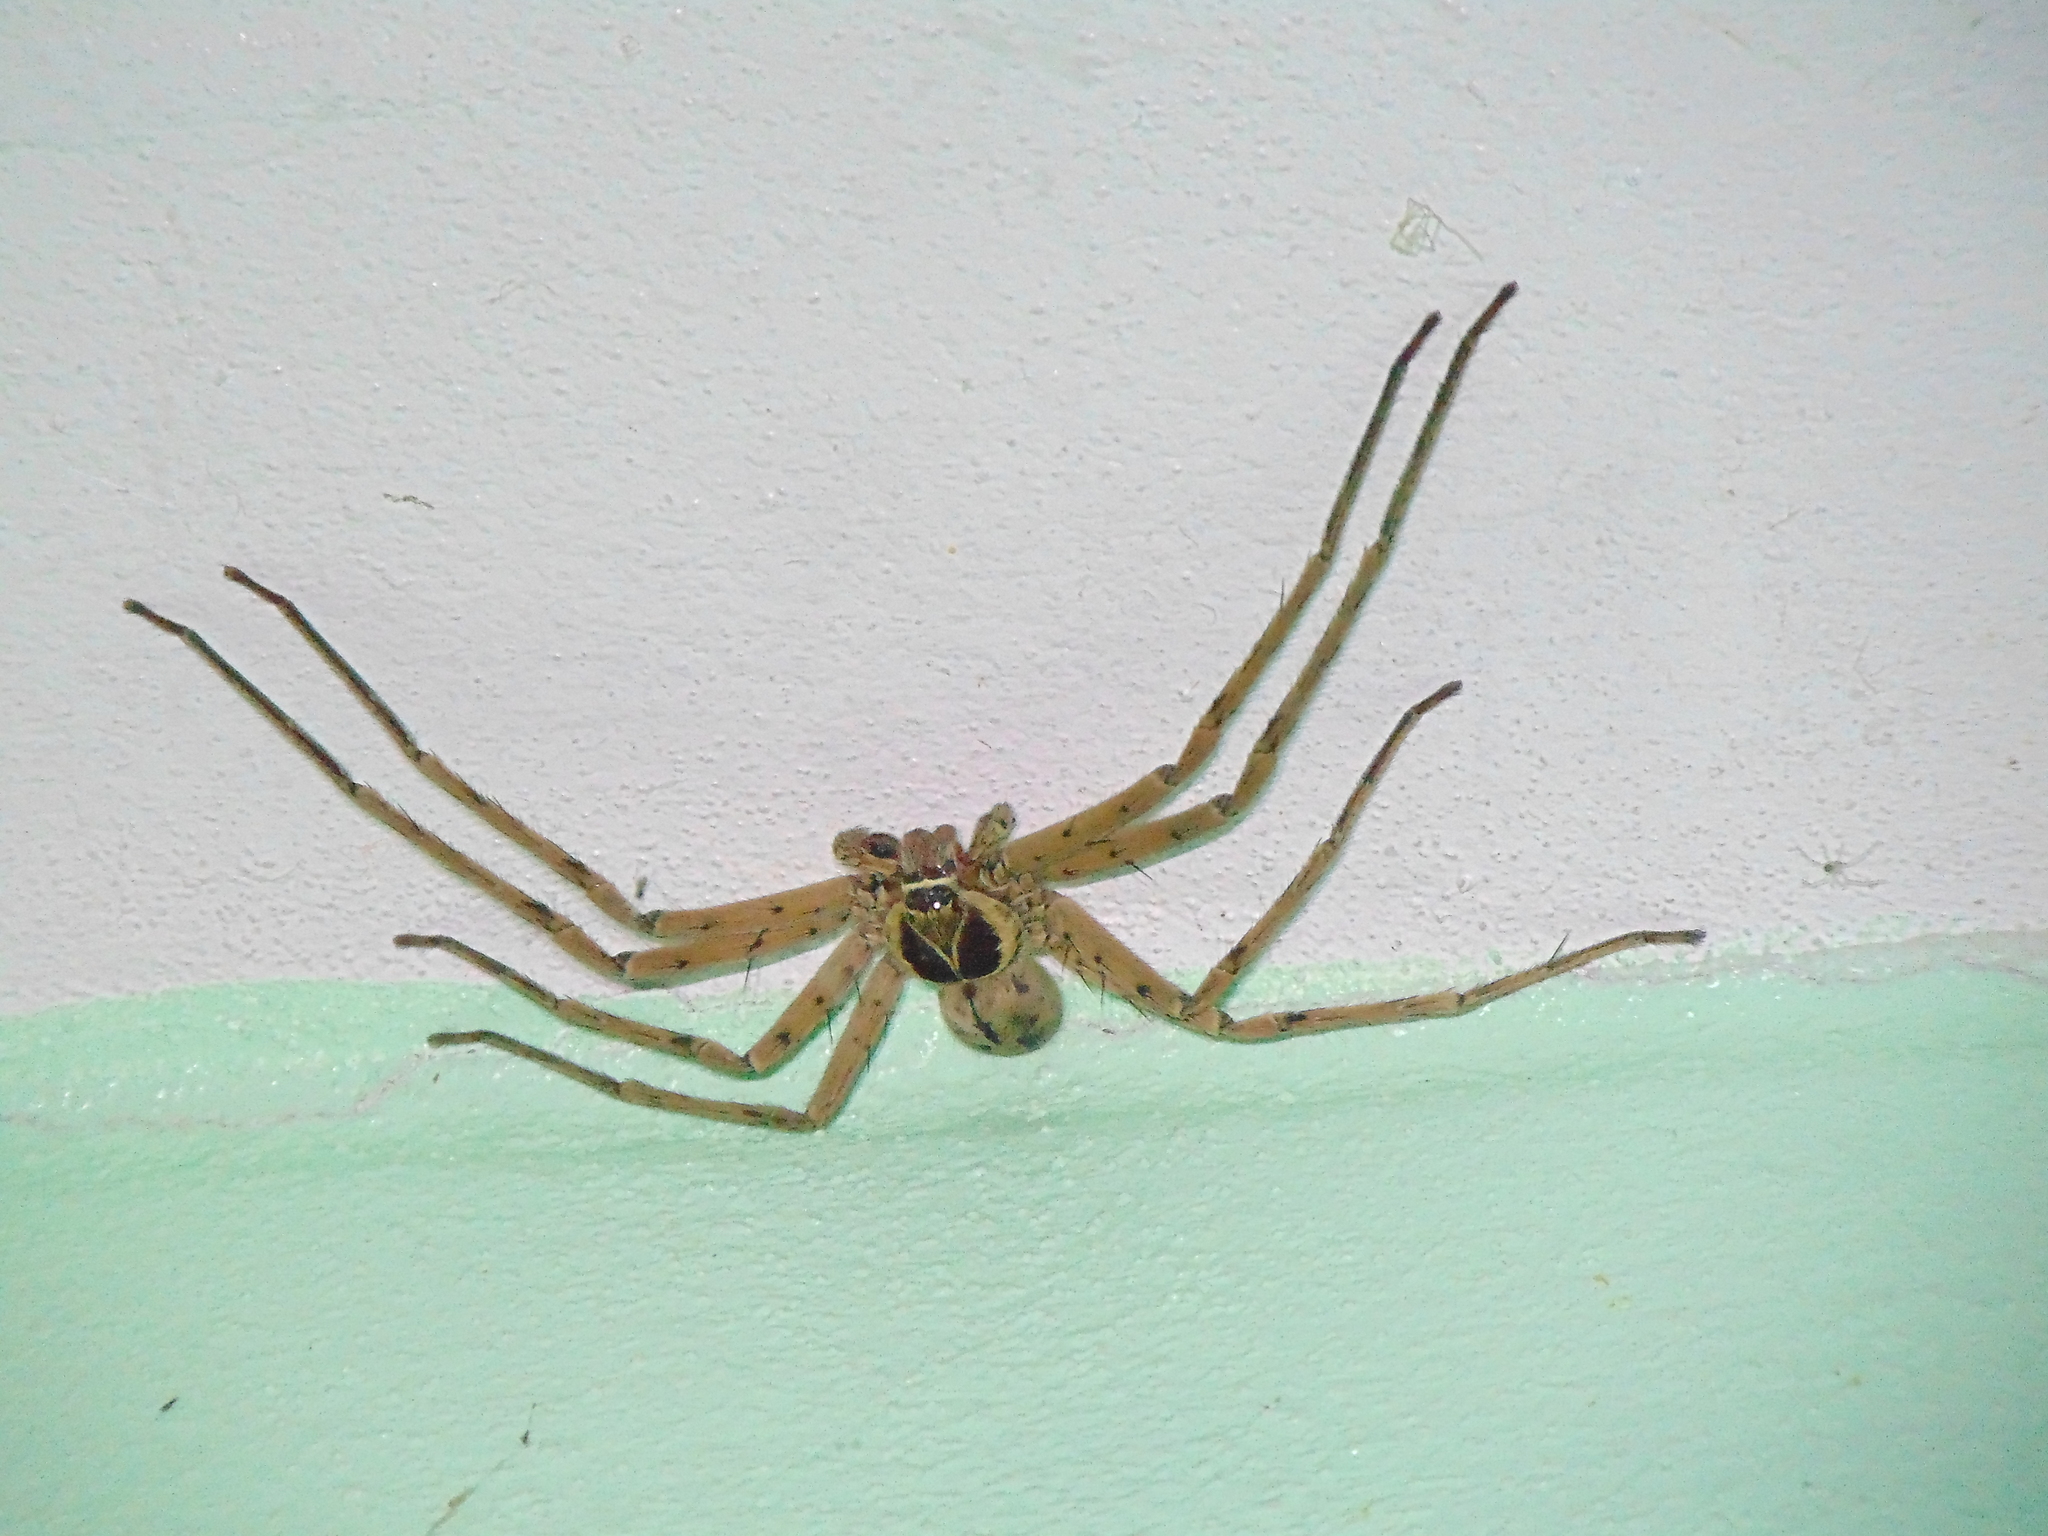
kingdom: Animalia
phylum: Arthropoda
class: Arachnida
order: Araneae
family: Sparassidae
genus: Heteropoda
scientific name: Heteropoda venatoria
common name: Huntsman spider
